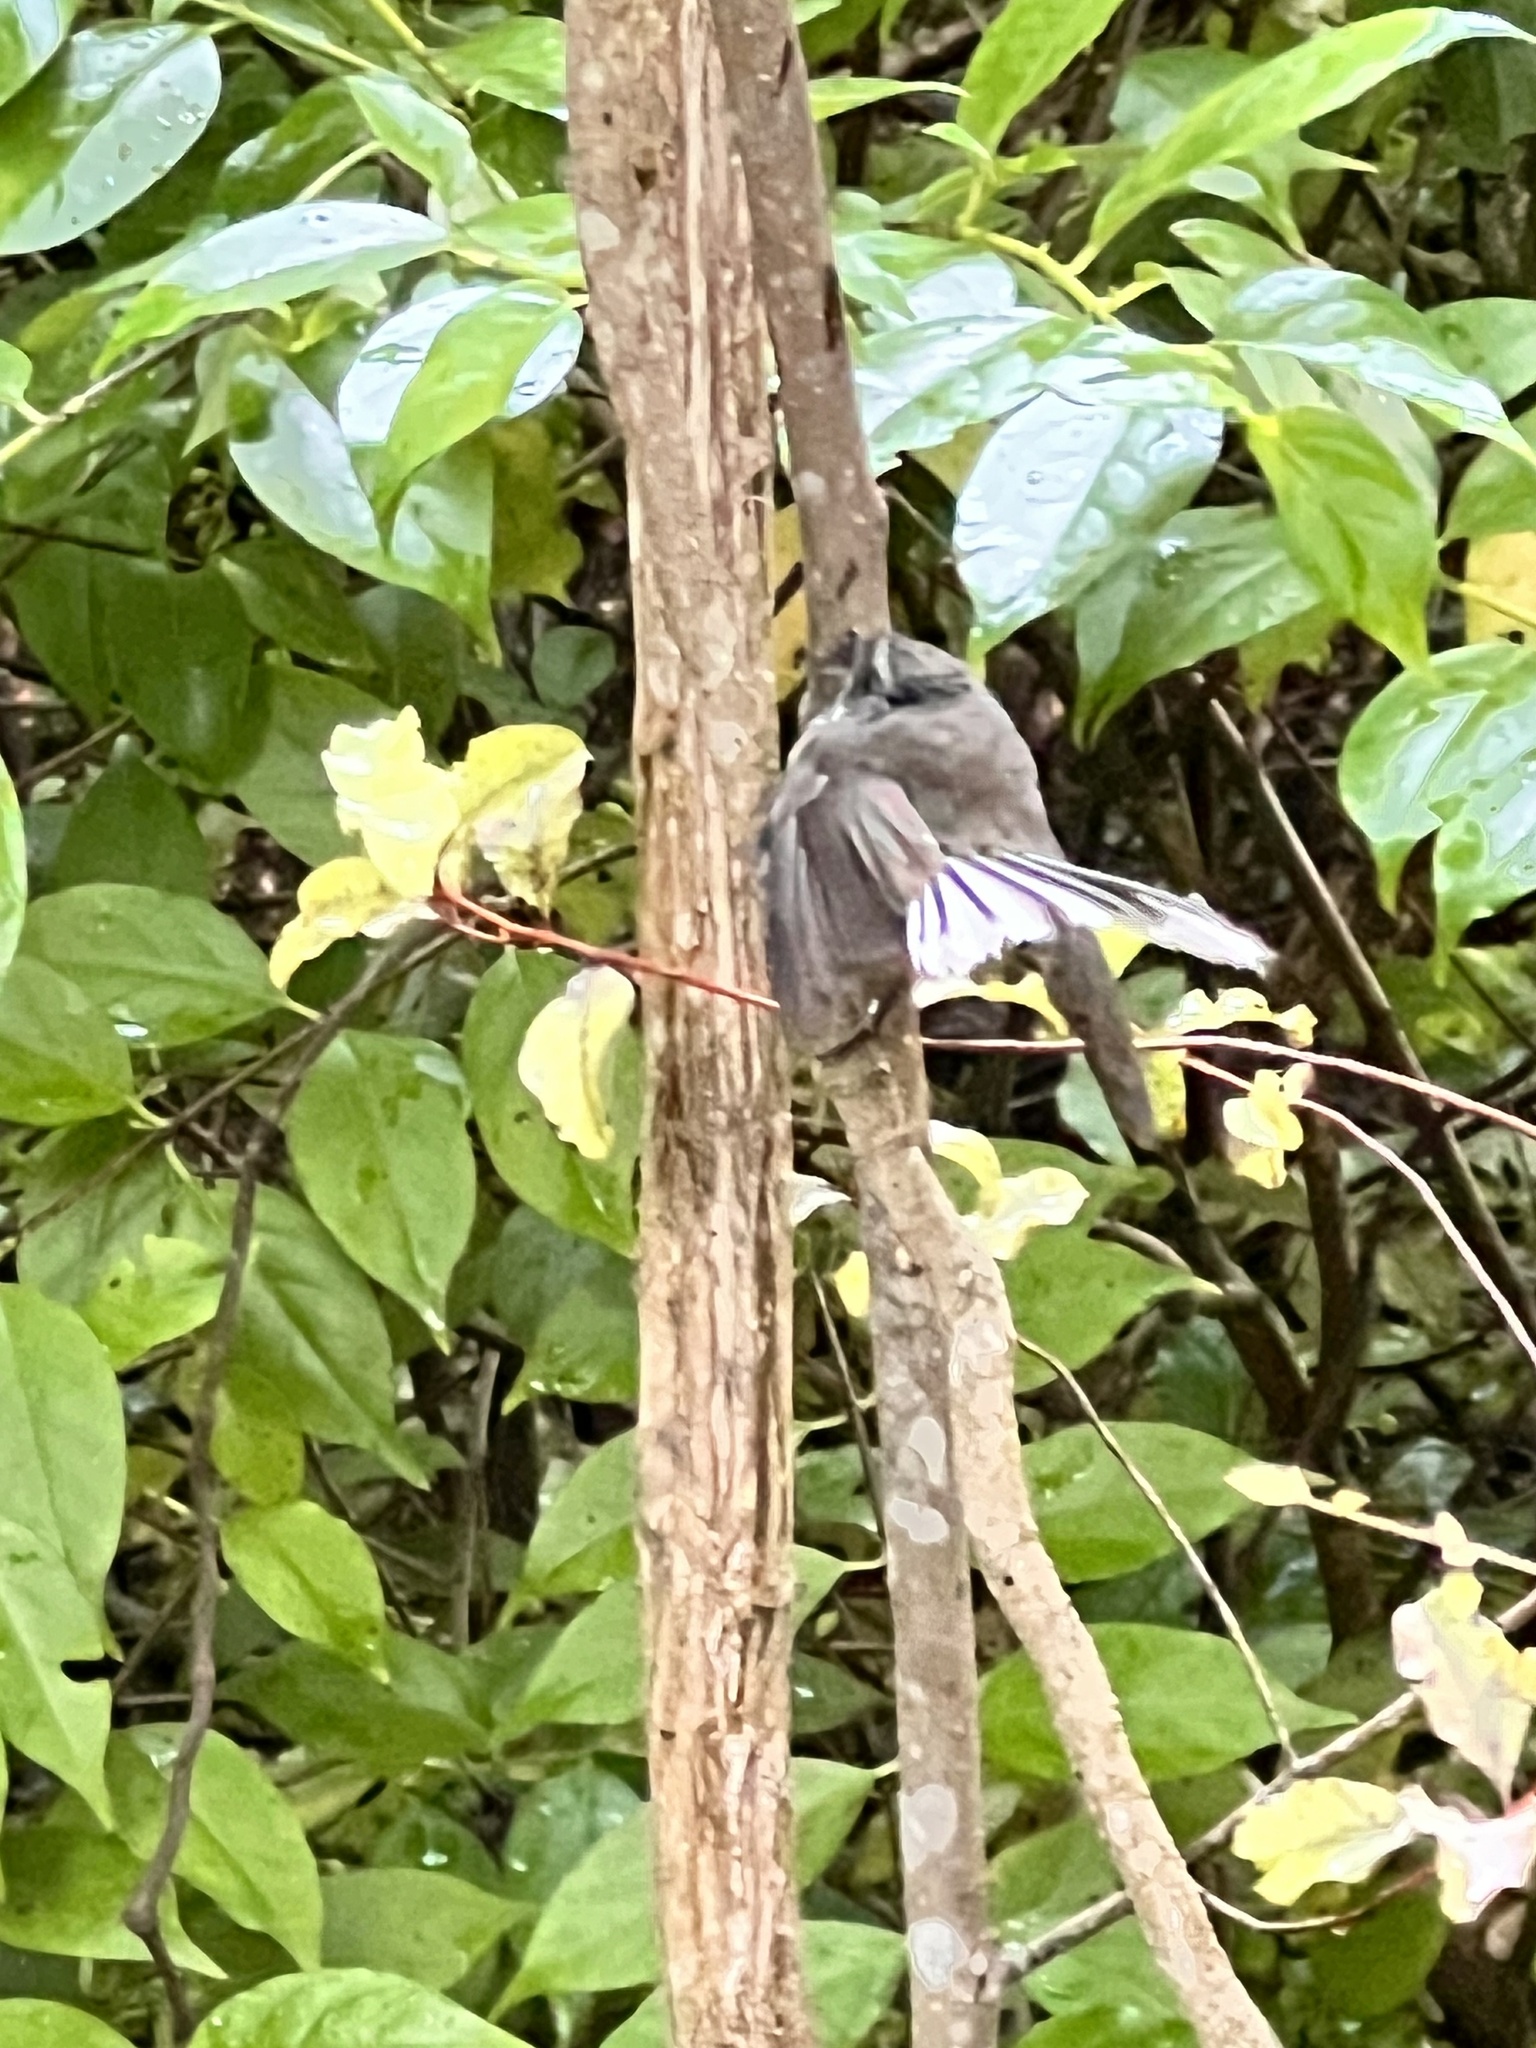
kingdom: Animalia
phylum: Chordata
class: Aves
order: Passeriformes
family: Rhipiduridae
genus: Rhipidura
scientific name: Rhipidura fuliginosa
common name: New zealand fantail
